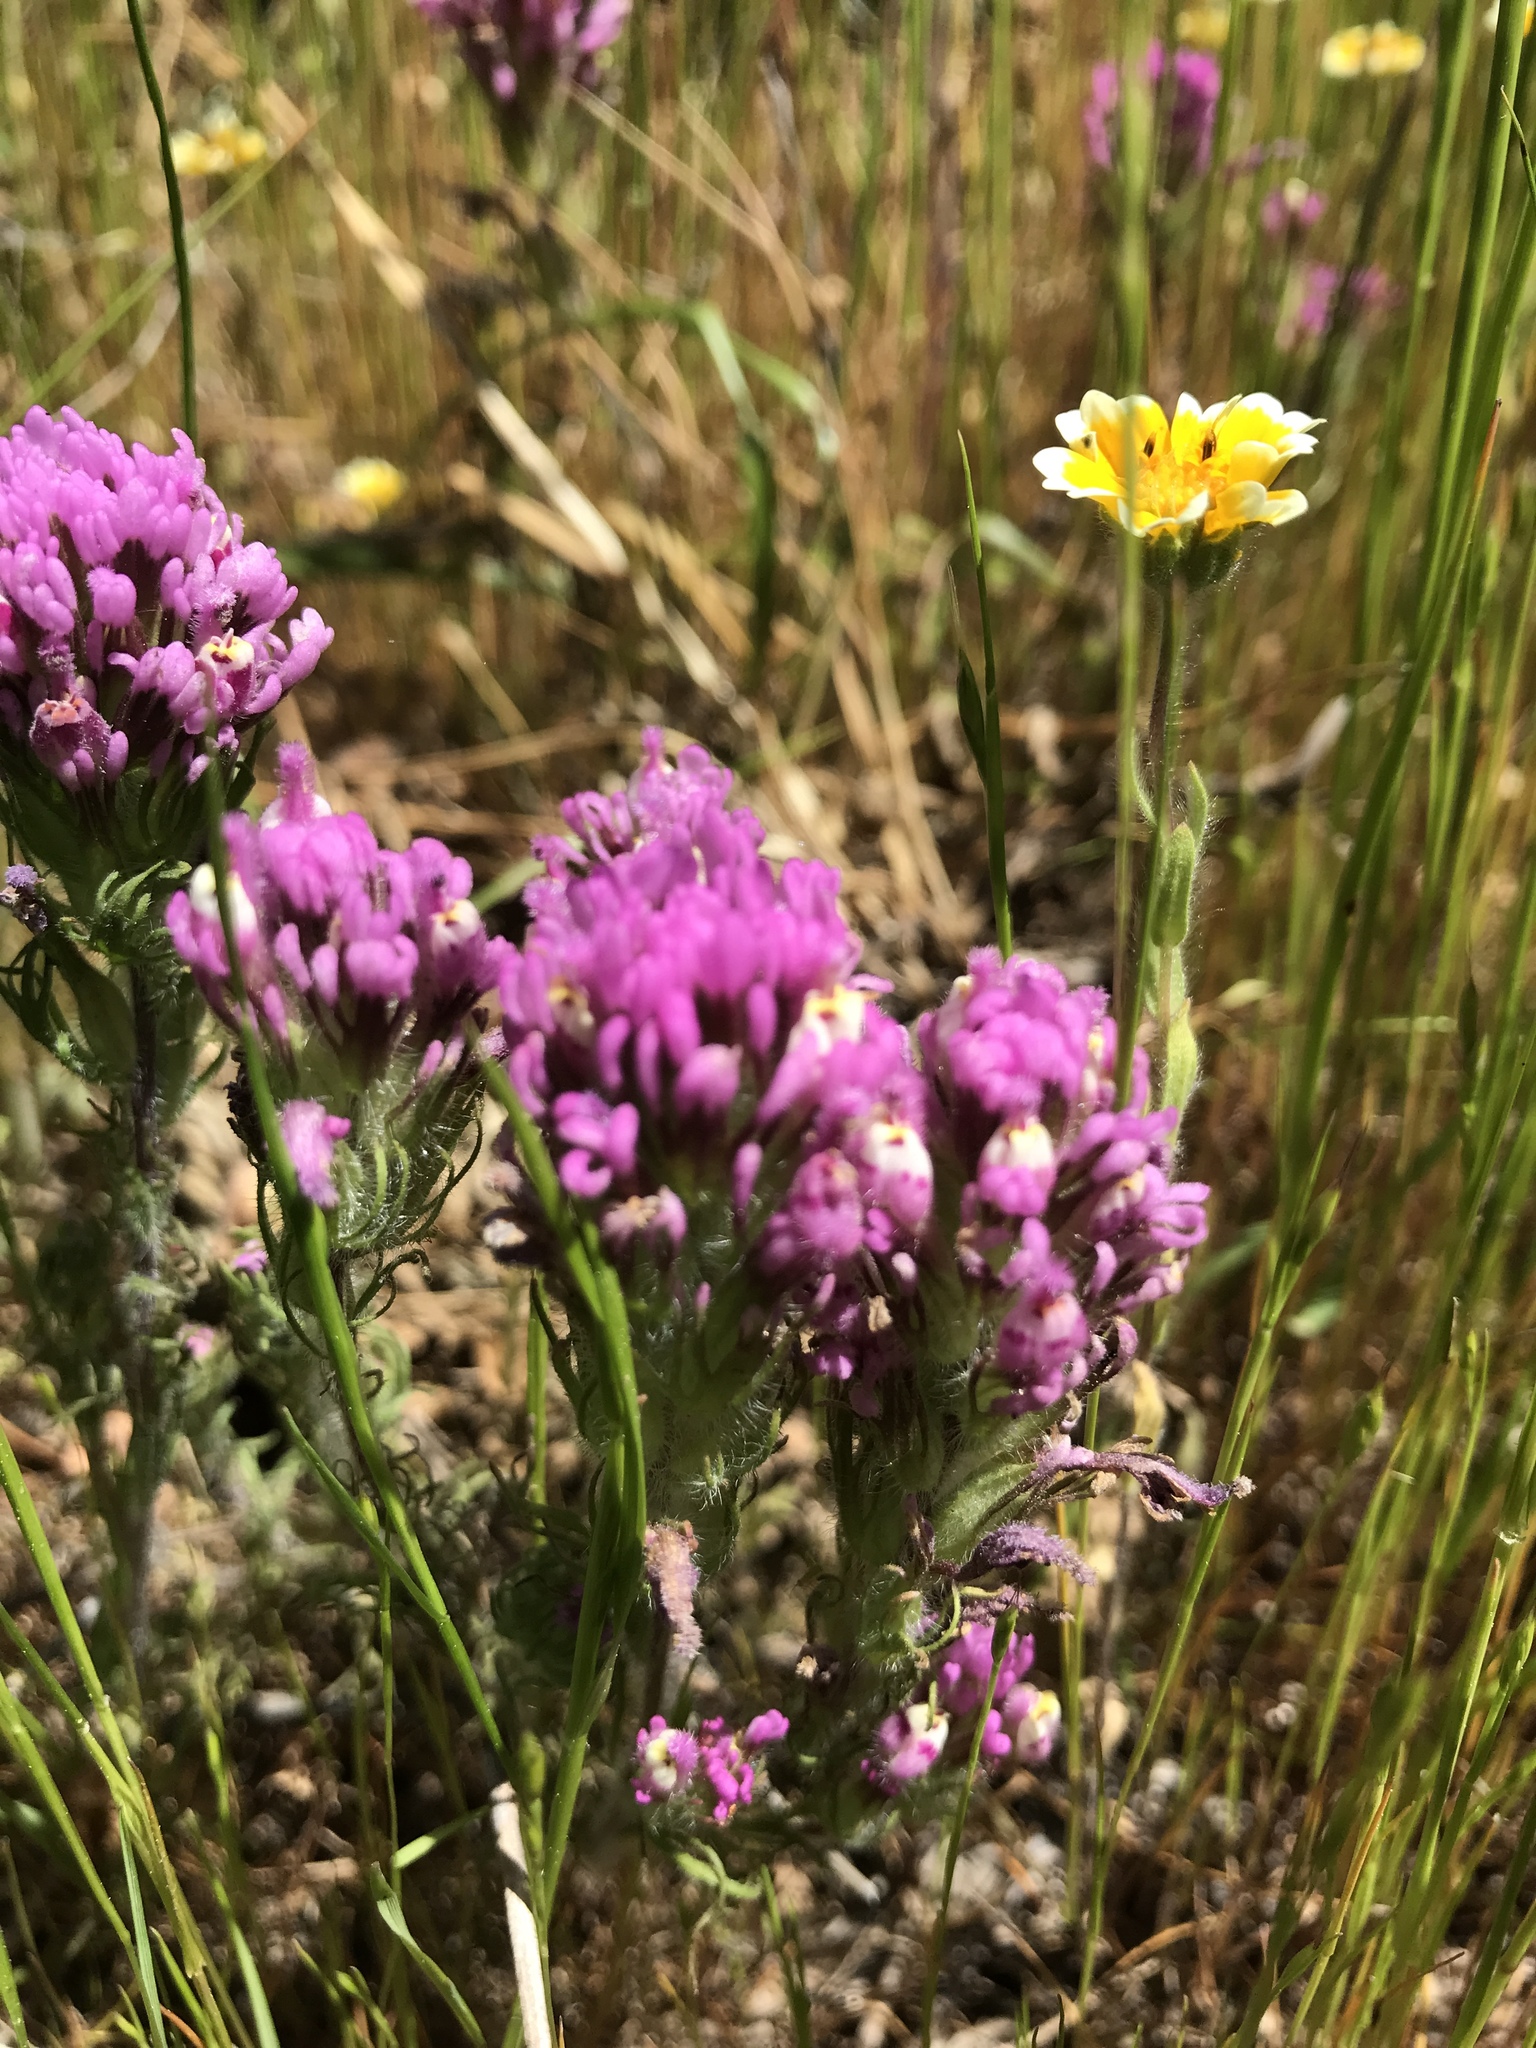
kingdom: Plantae
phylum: Tracheophyta
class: Magnoliopsida
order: Lamiales
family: Orobanchaceae
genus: Castilleja
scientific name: Castilleja exserta
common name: Purple owl-clover
